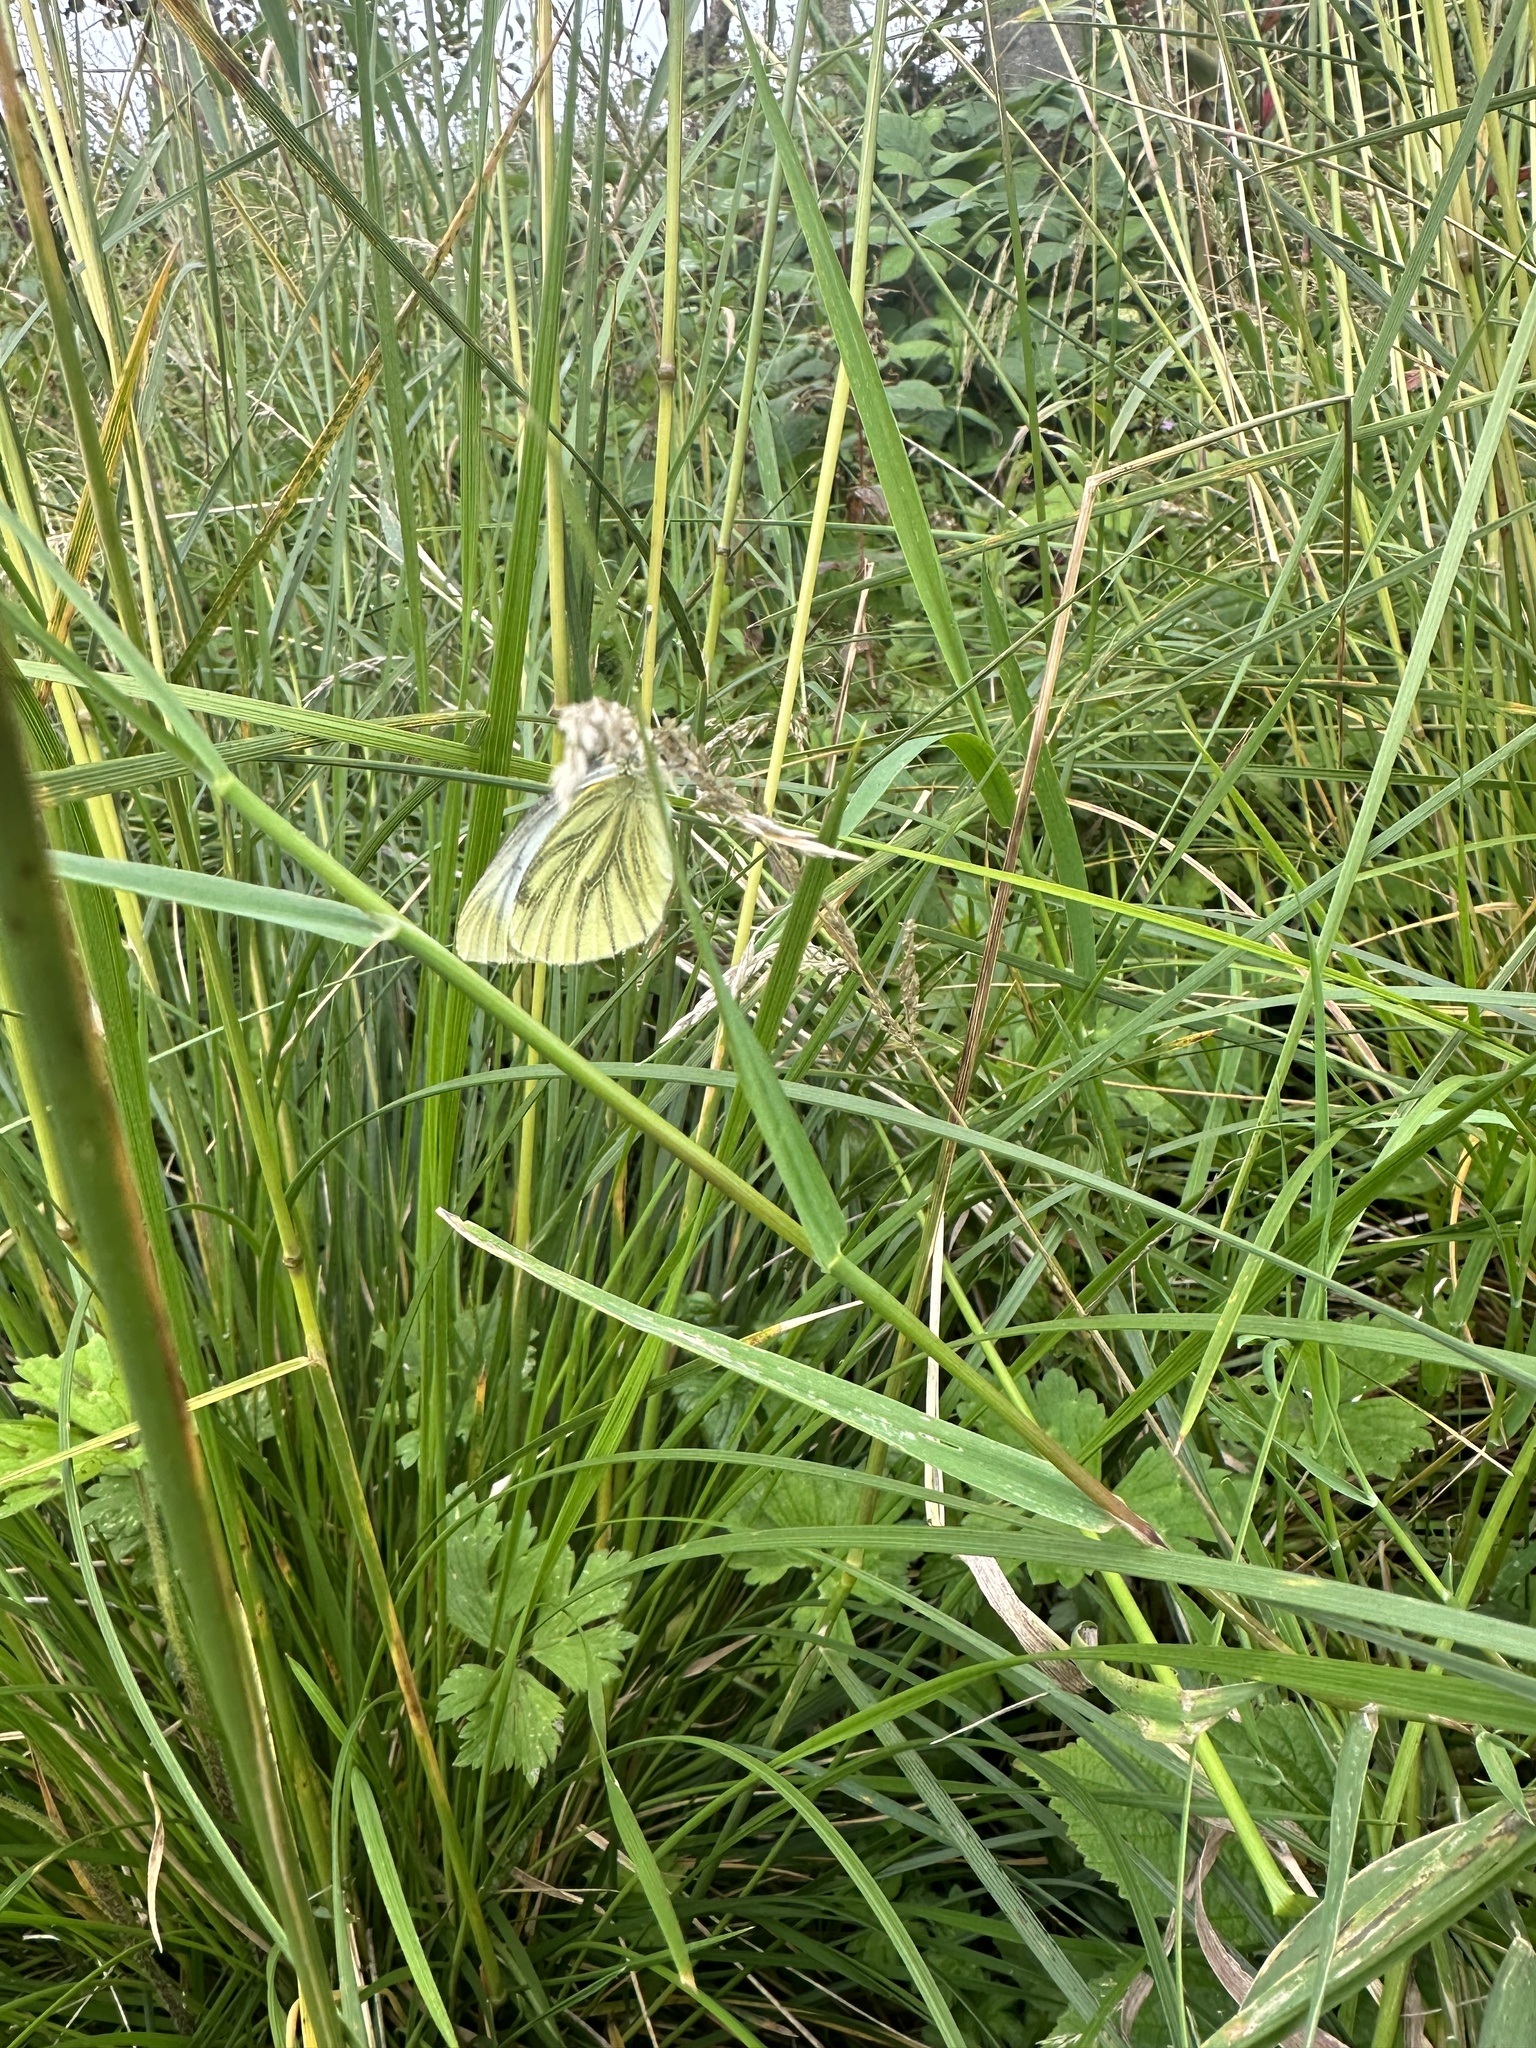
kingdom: Animalia
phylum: Arthropoda
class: Insecta
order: Lepidoptera
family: Pieridae
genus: Pieris
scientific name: Pieris napi
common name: Green-veined white
